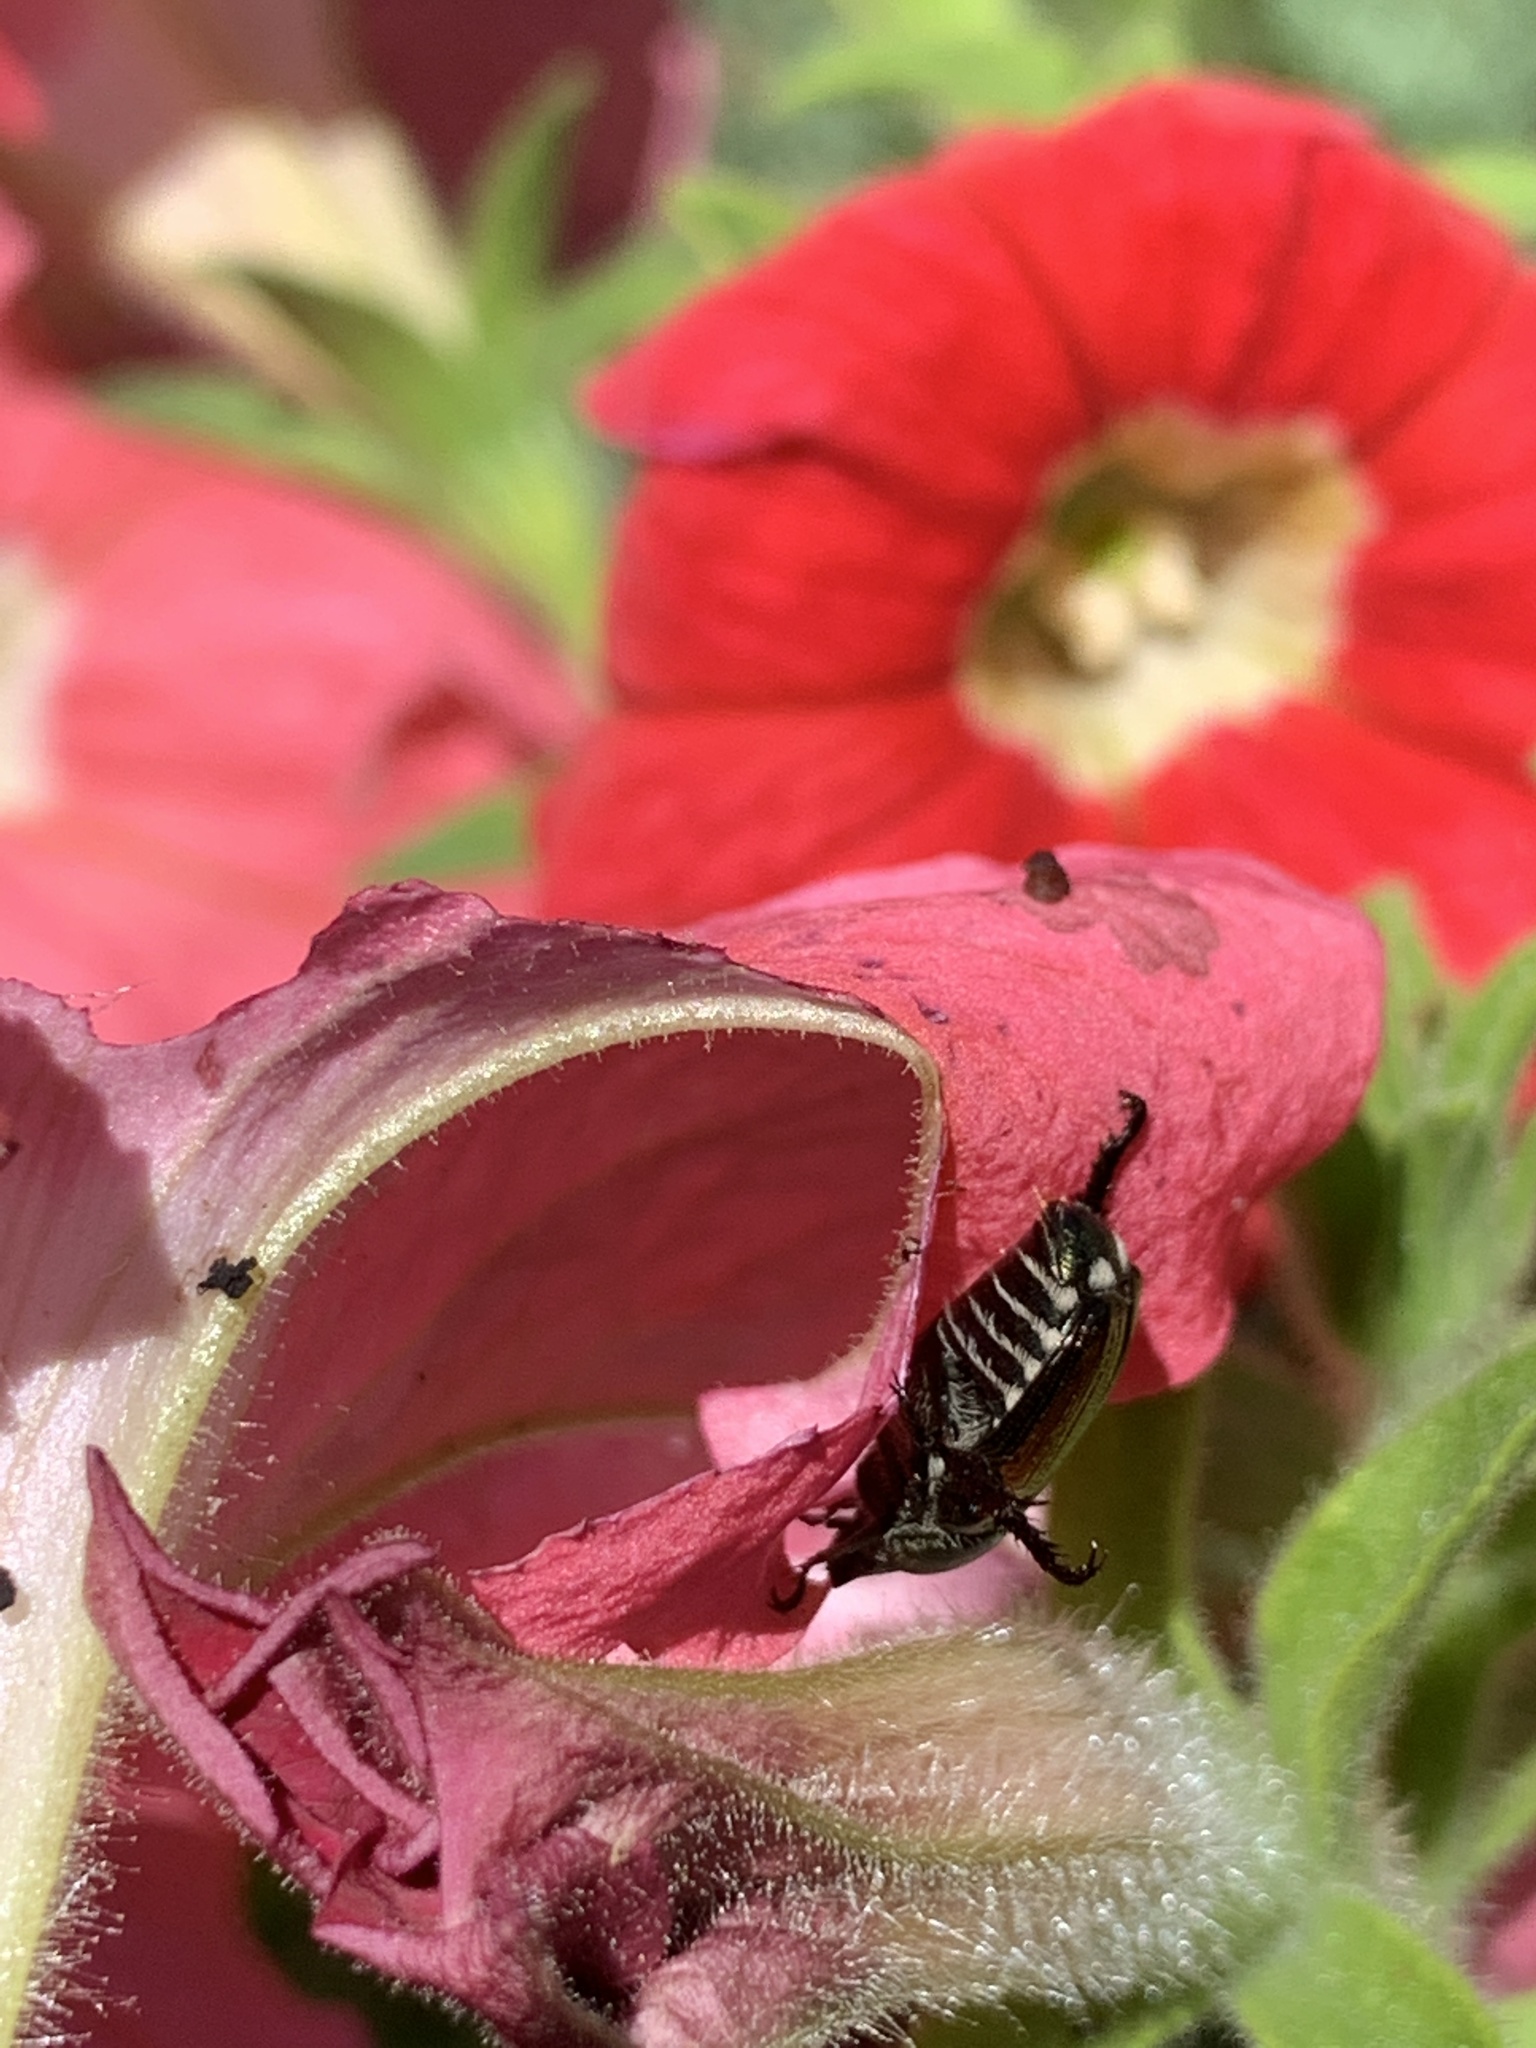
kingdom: Animalia
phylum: Arthropoda
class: Insecta
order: Coleoptera
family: Scarabaeidae
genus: Popillia
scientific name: Popillia japonica
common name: Japanese beetle
